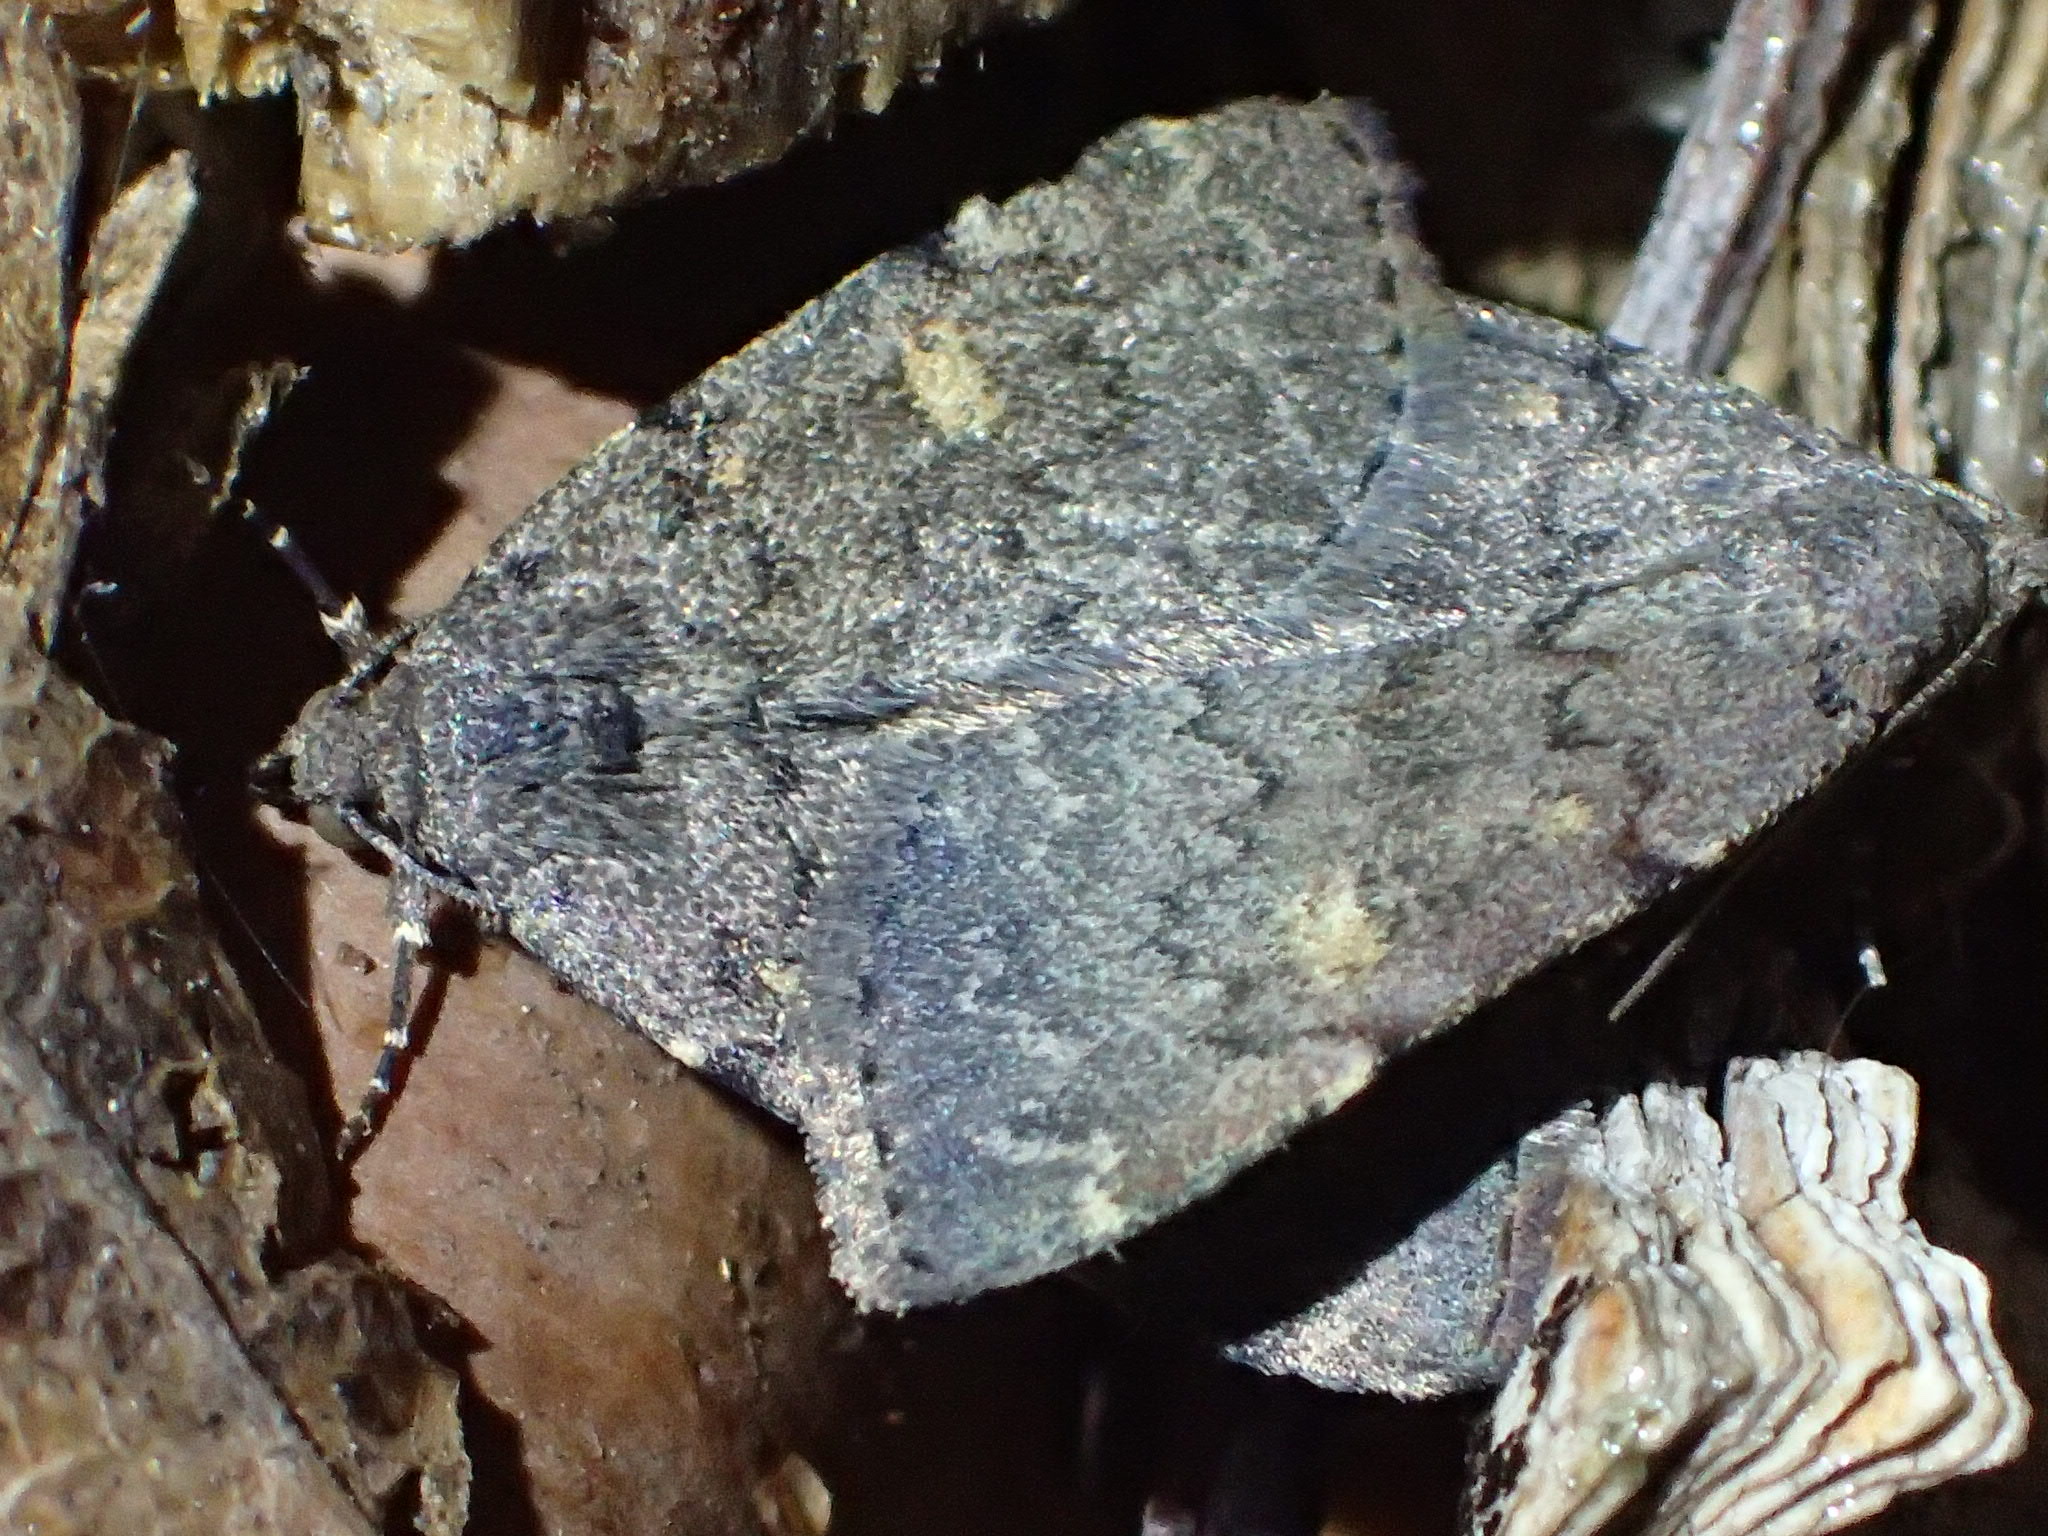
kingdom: Animalia
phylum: Arthropoda
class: Insecta
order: Lepidoptera
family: Erebidae
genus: Idia
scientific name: Idia aemula
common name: Common idia moth
